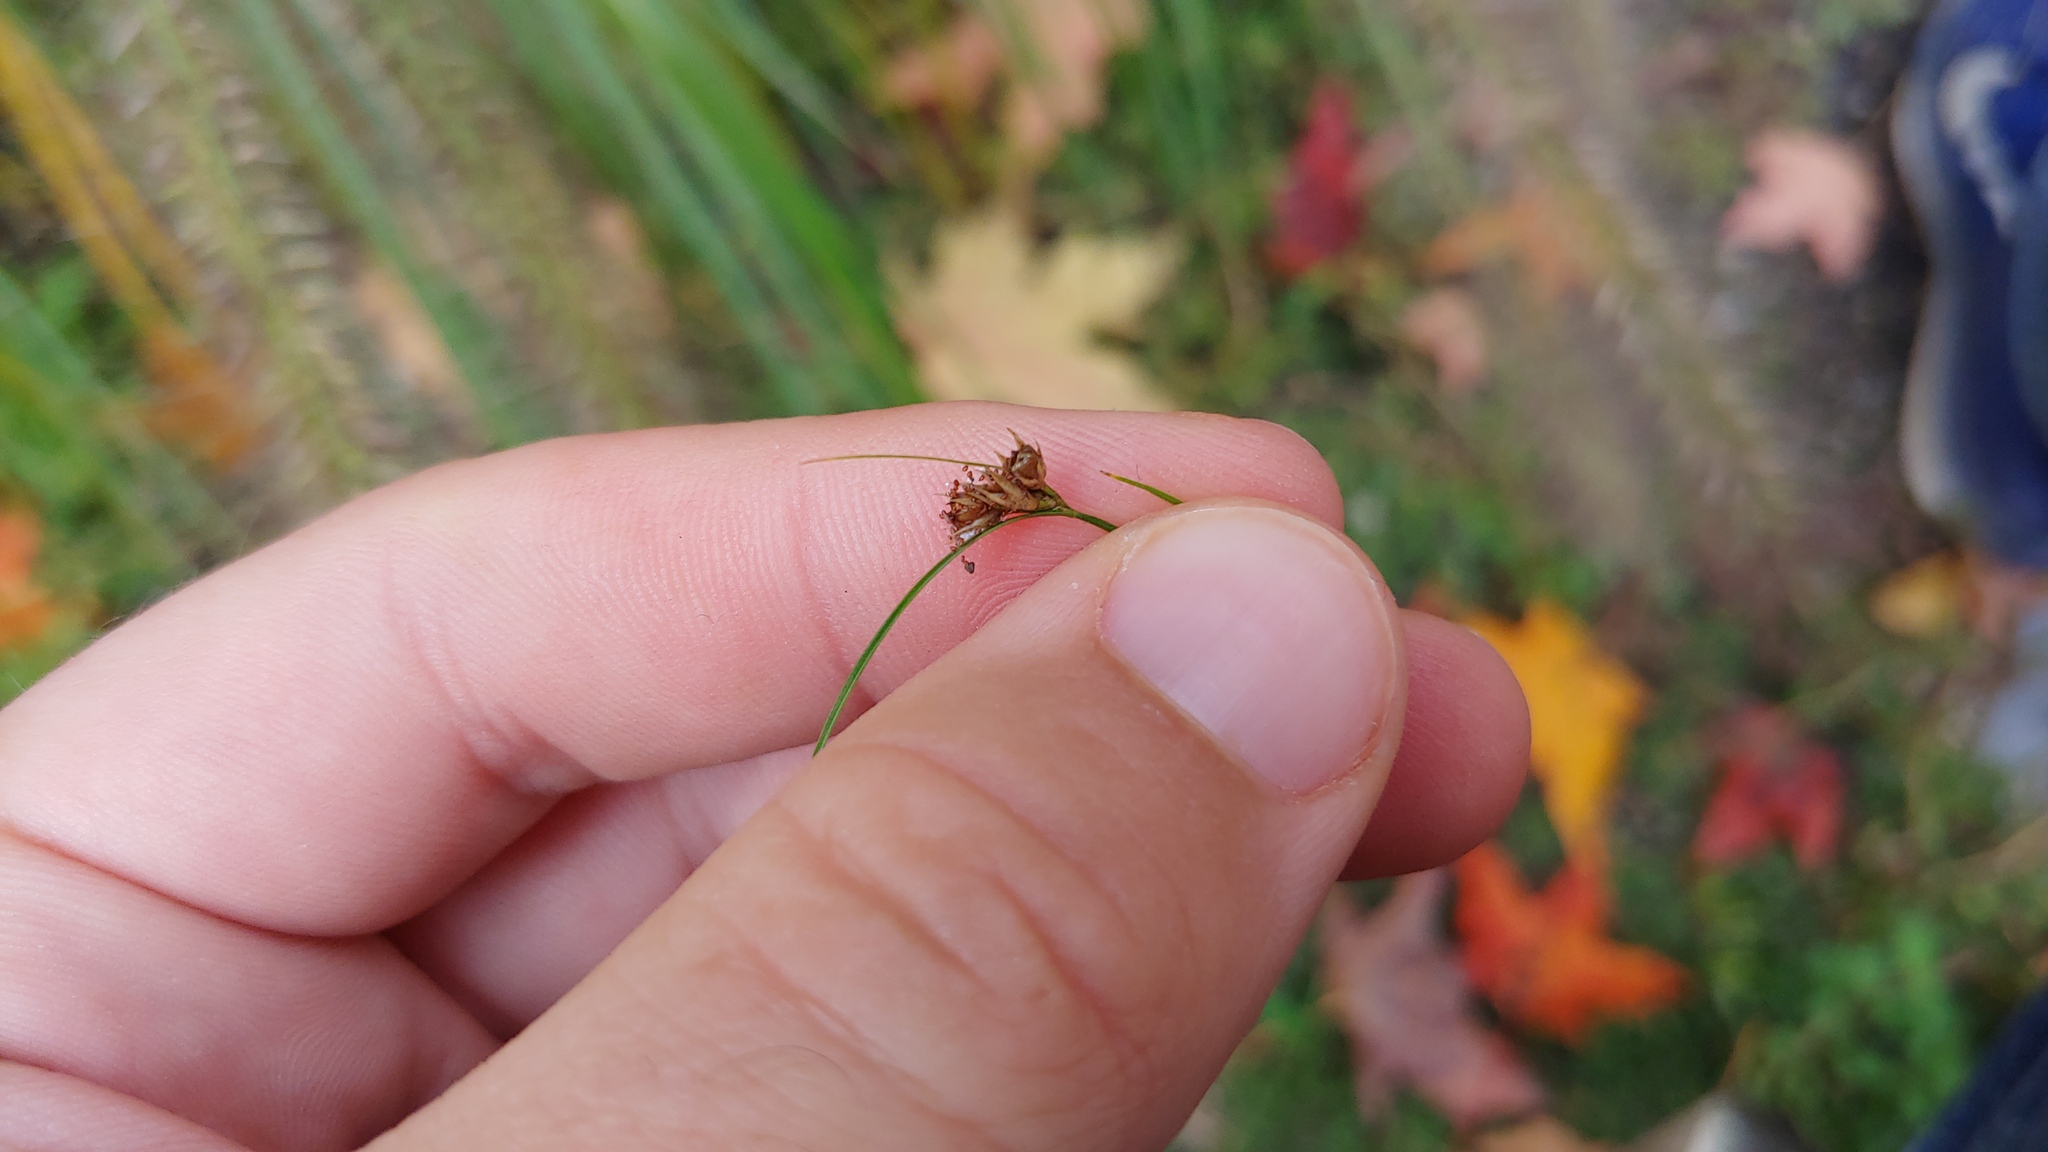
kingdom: Plantae
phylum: Tracheophyta
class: Liliopsida
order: Poales
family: Juncaceae
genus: Juncus
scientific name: Juncus tenuis
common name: Slender rush
